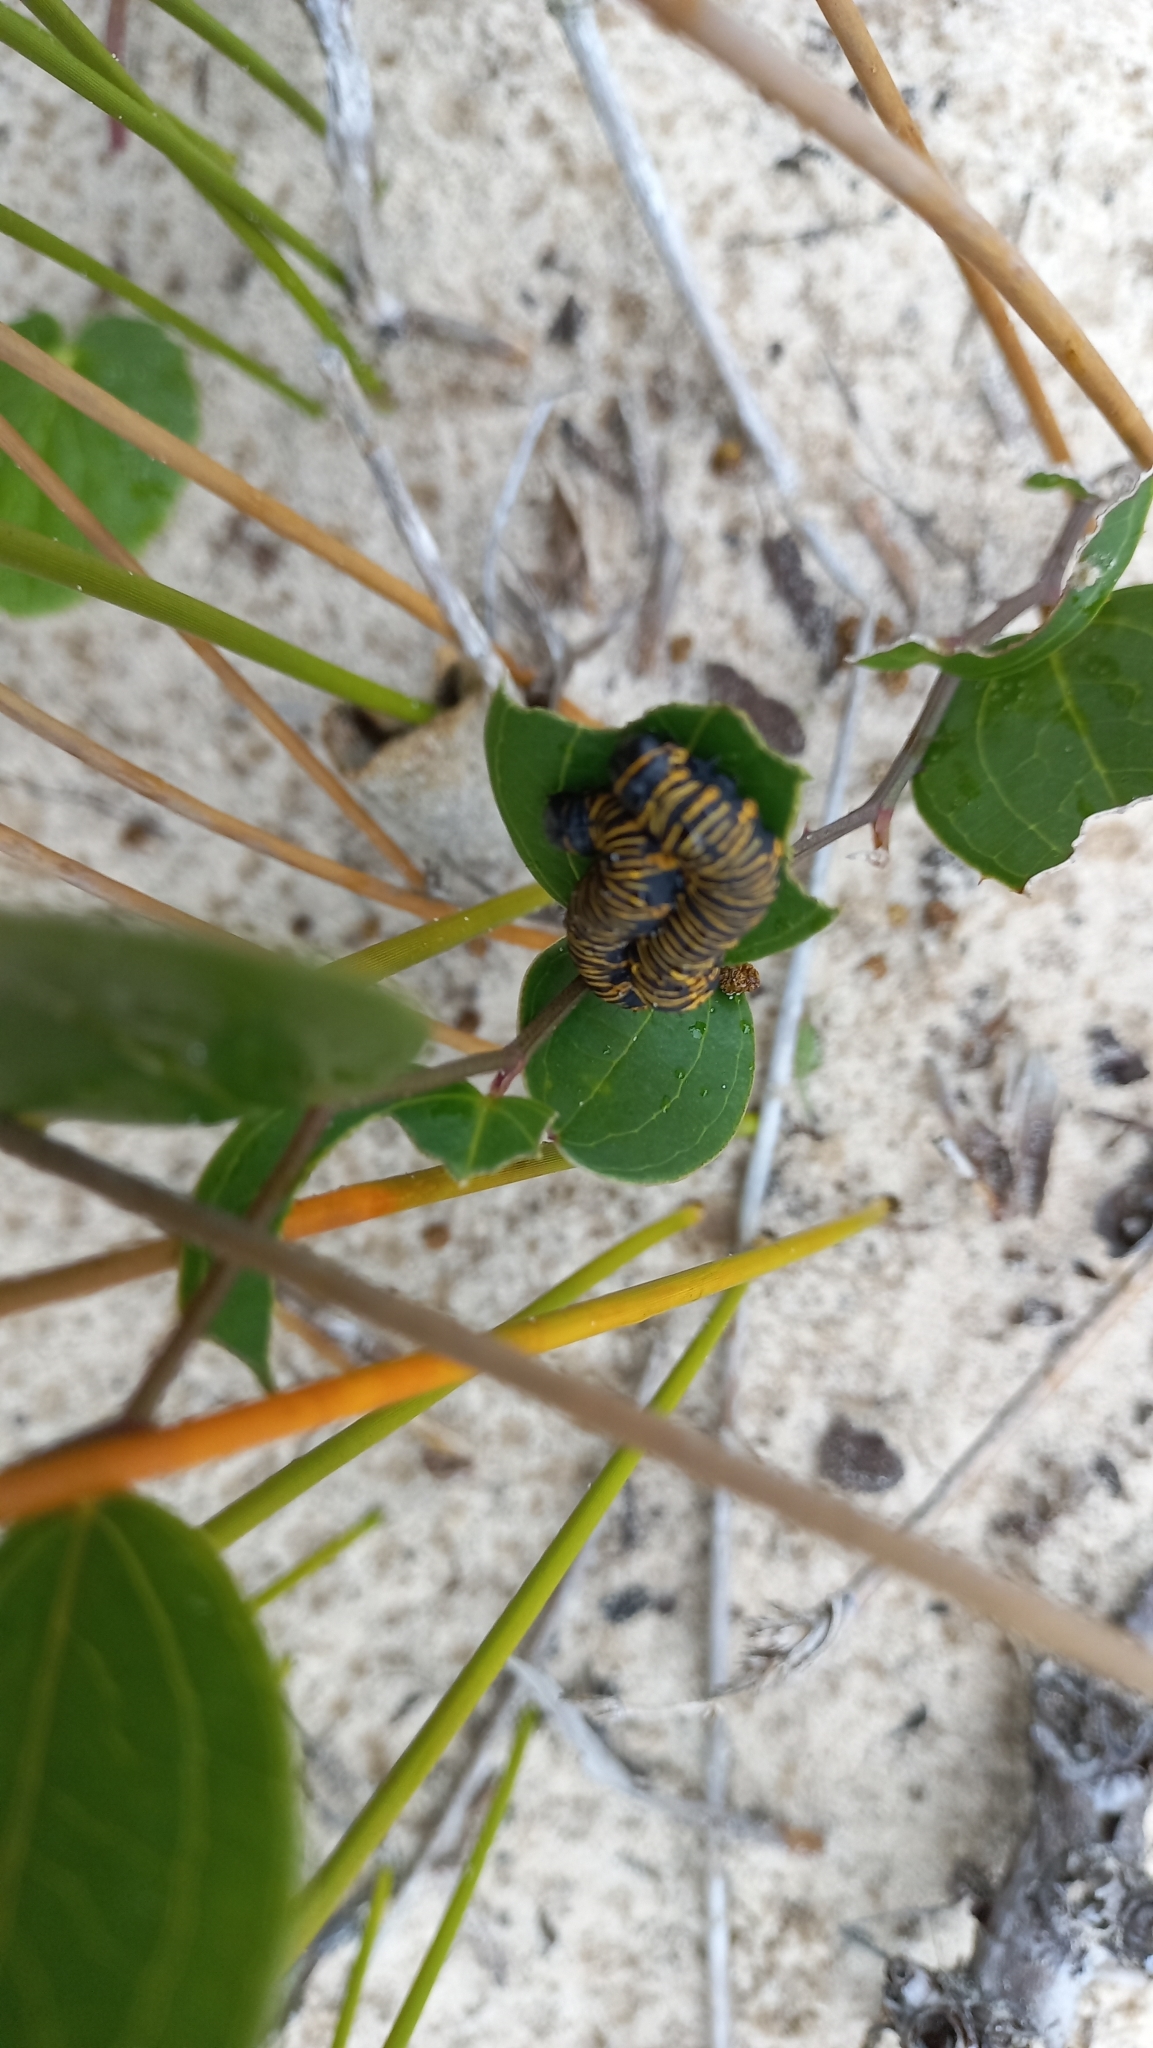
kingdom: Animalia
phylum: Arthropoda
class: Insecta
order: Lepidoptera
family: Erebidae
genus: Cabralia
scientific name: Cabralia Cromobergia teichii
